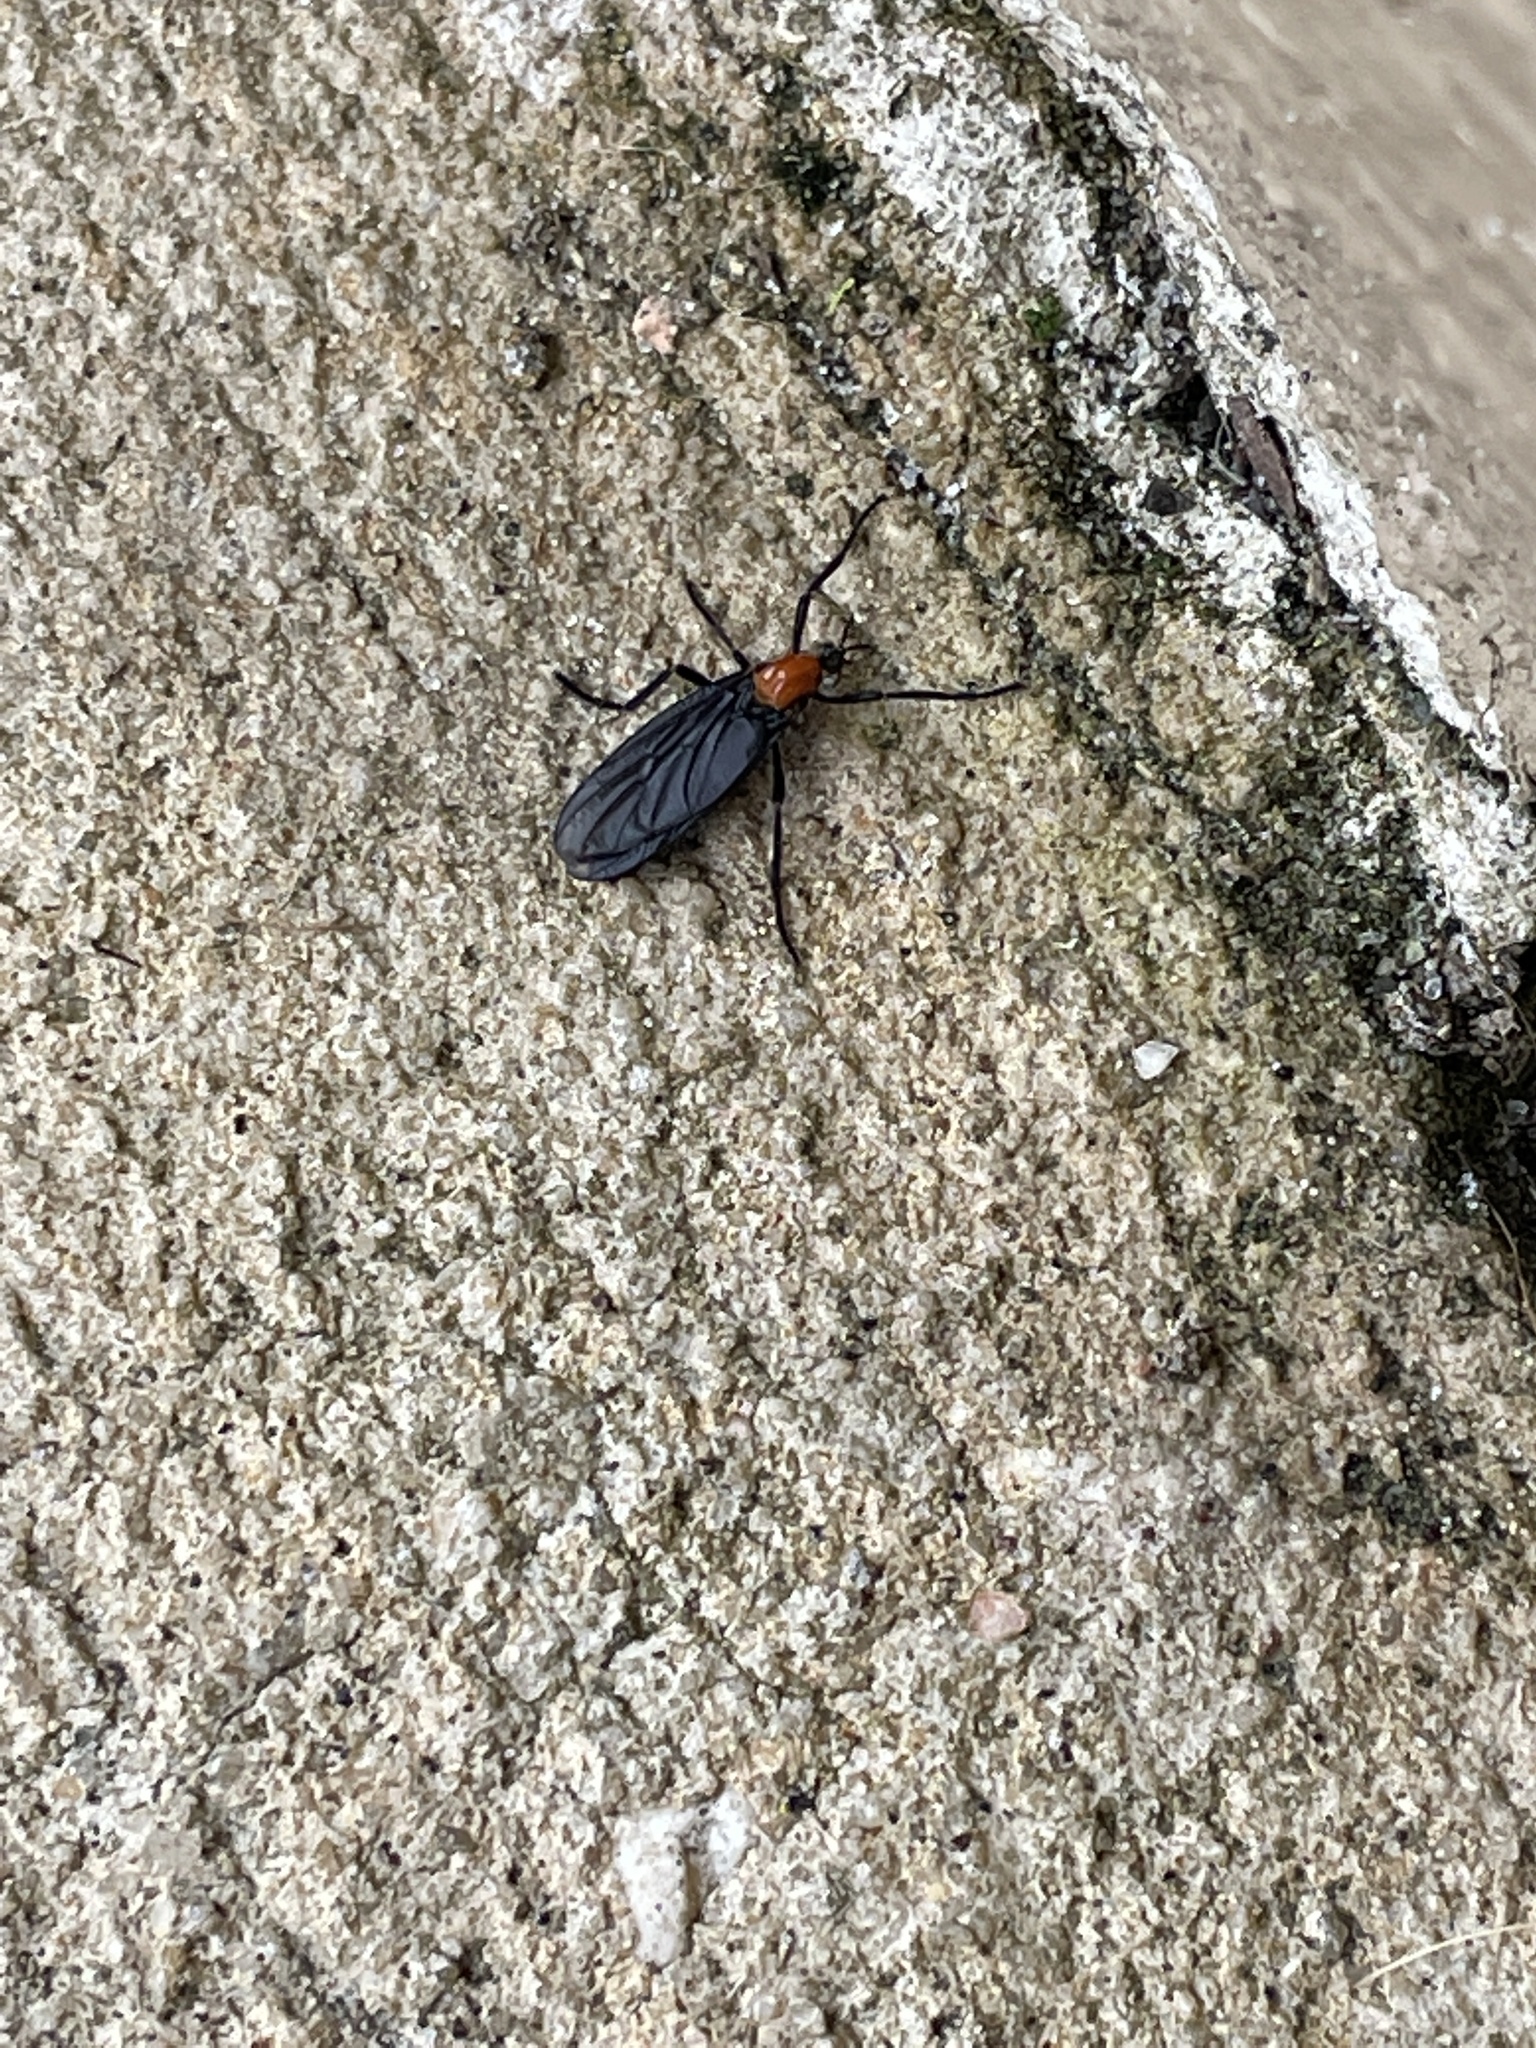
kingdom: Animalia
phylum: Arthropoda
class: Insecta
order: Diptera
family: Bibionidae
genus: Plecia
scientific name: Plecia nearctica
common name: March fly
